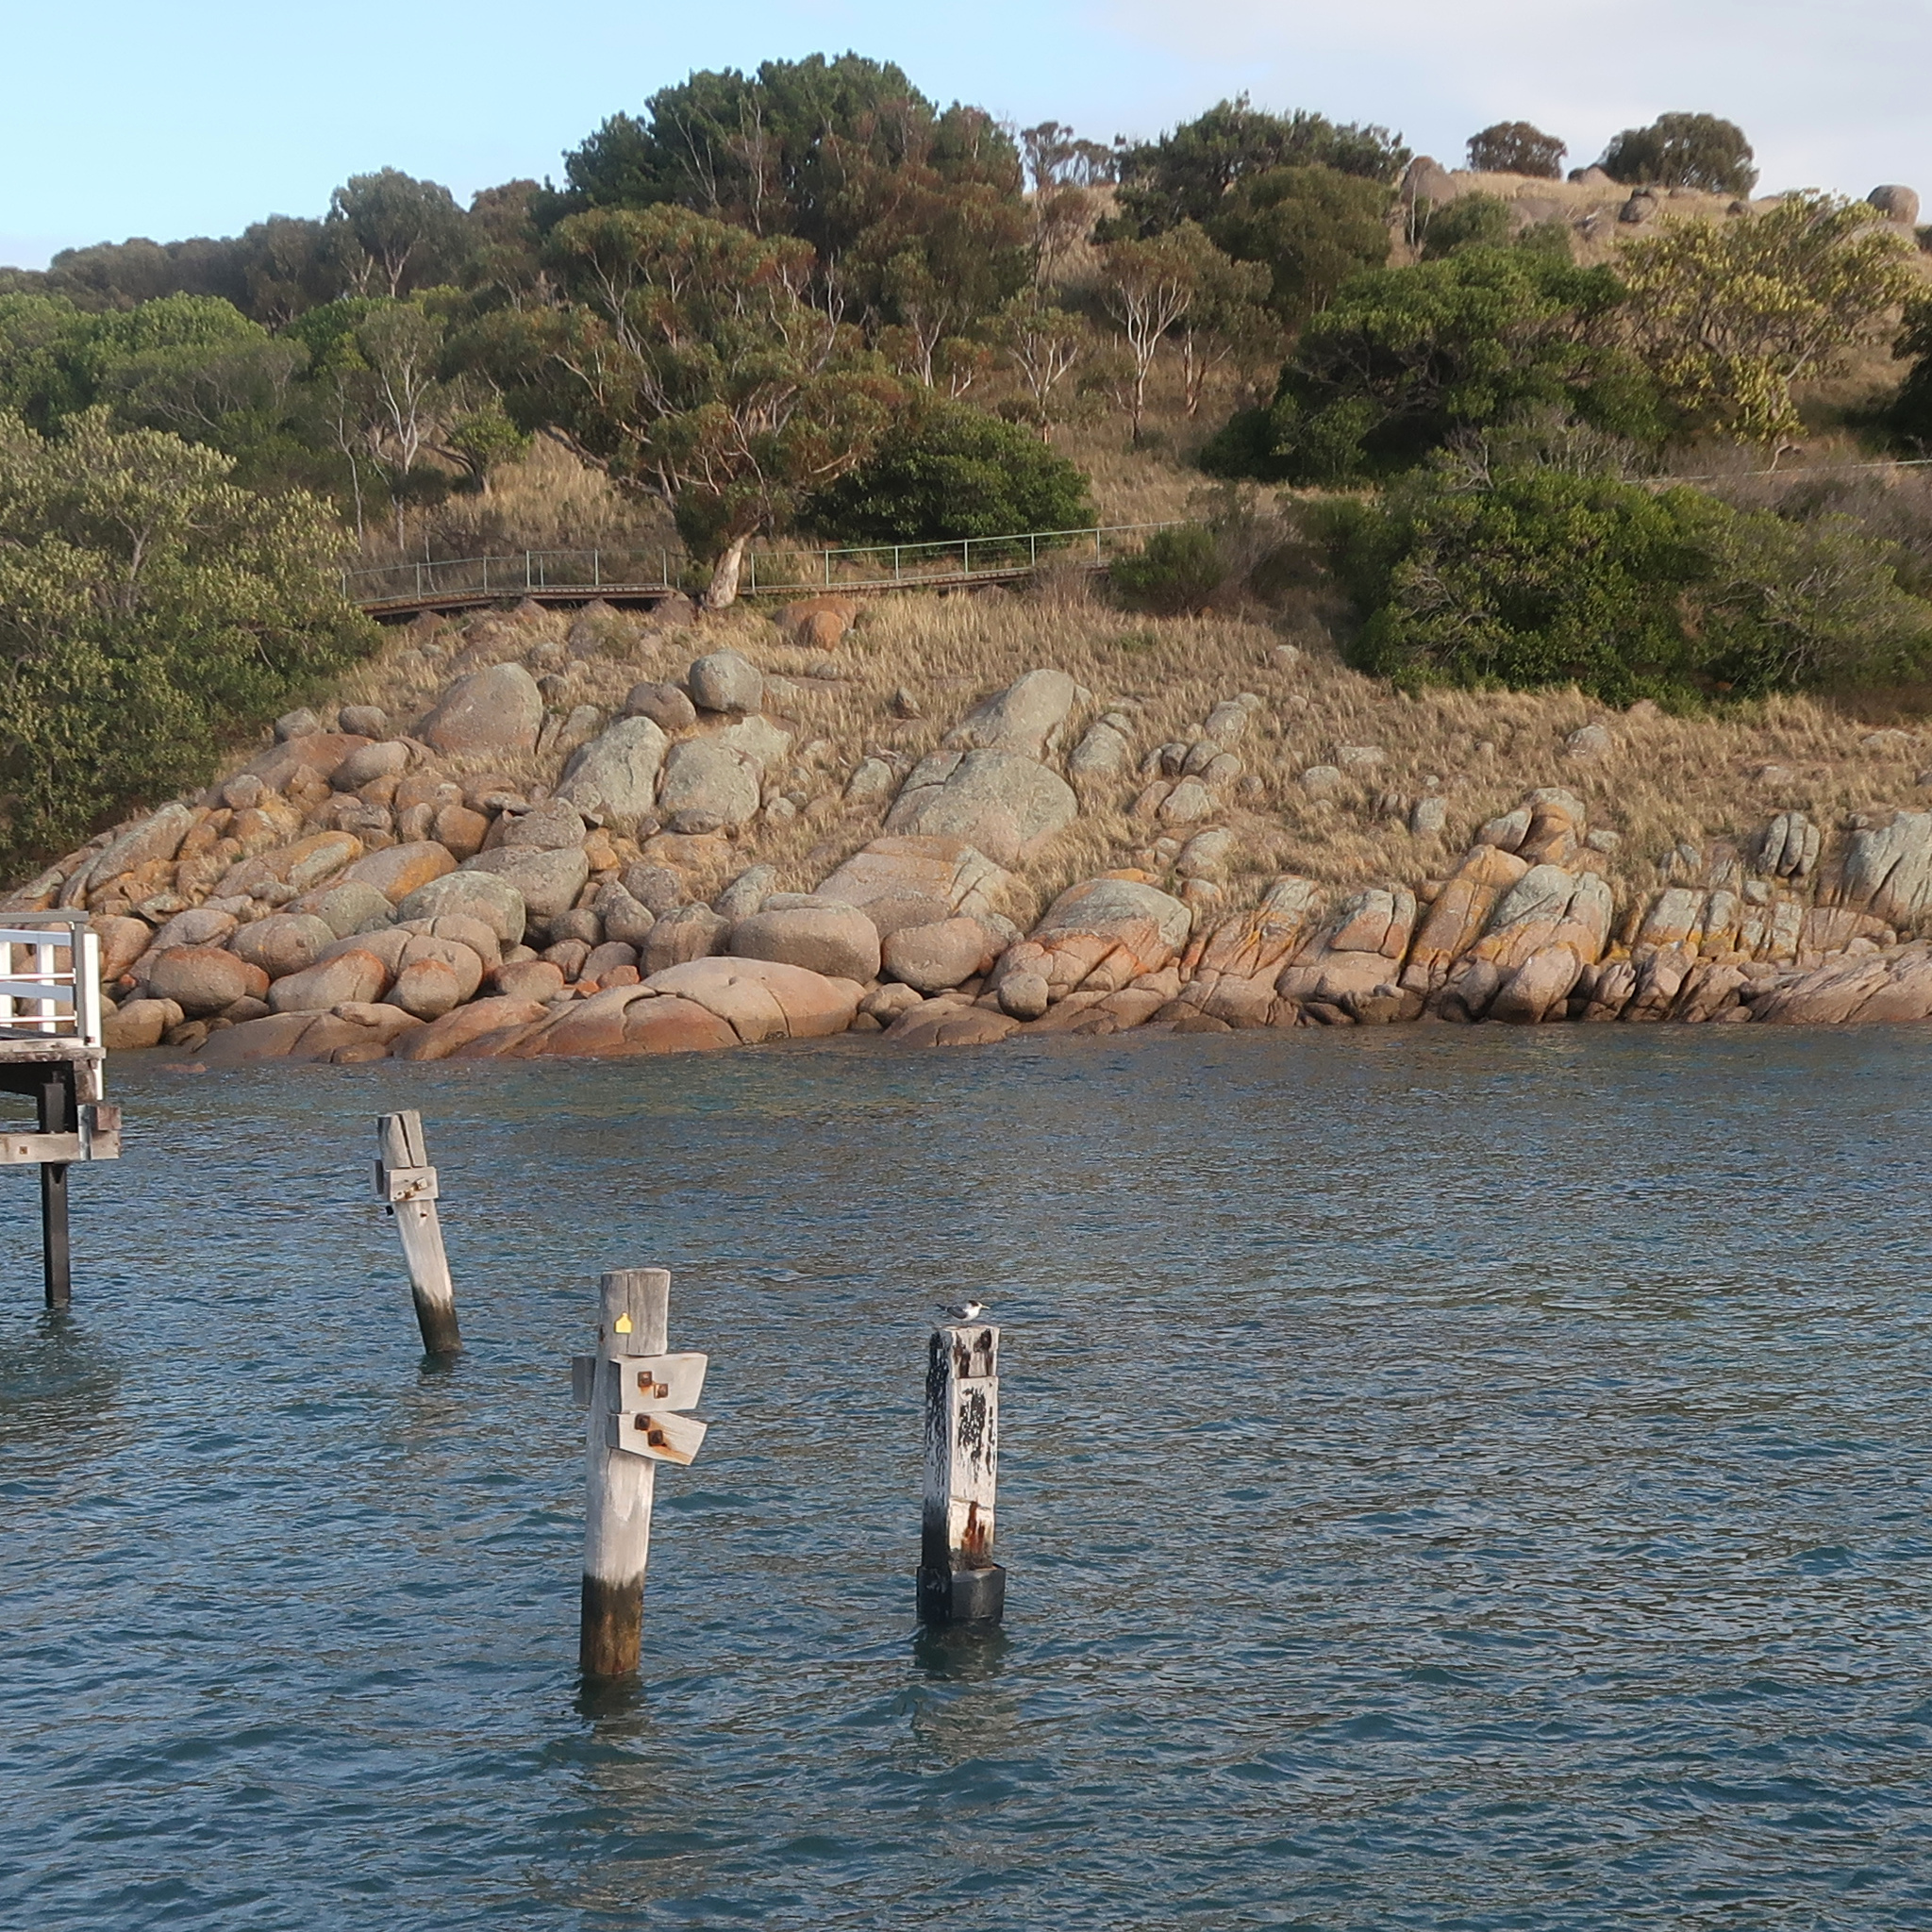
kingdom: Animalia
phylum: Chordata
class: Aves
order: Charadriiformes
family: Laridae
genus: Thalasseus
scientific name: Thalasseus bergii
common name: Greater crested tern
